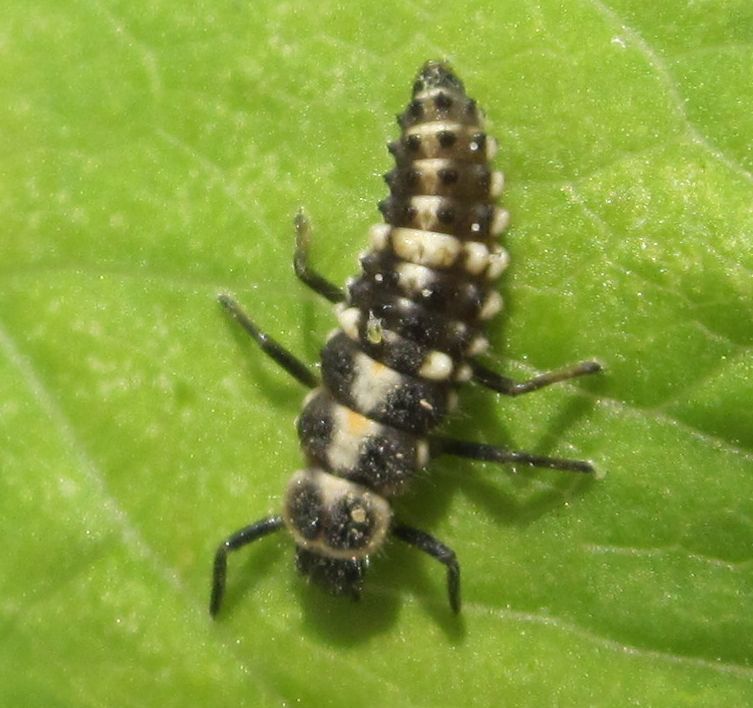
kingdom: Animalia
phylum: Arthropoda
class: Insecta
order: Coleoptera
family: Coccinellidae
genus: Oenopia
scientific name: Oenopia conglobata
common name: Ladybird beetle
